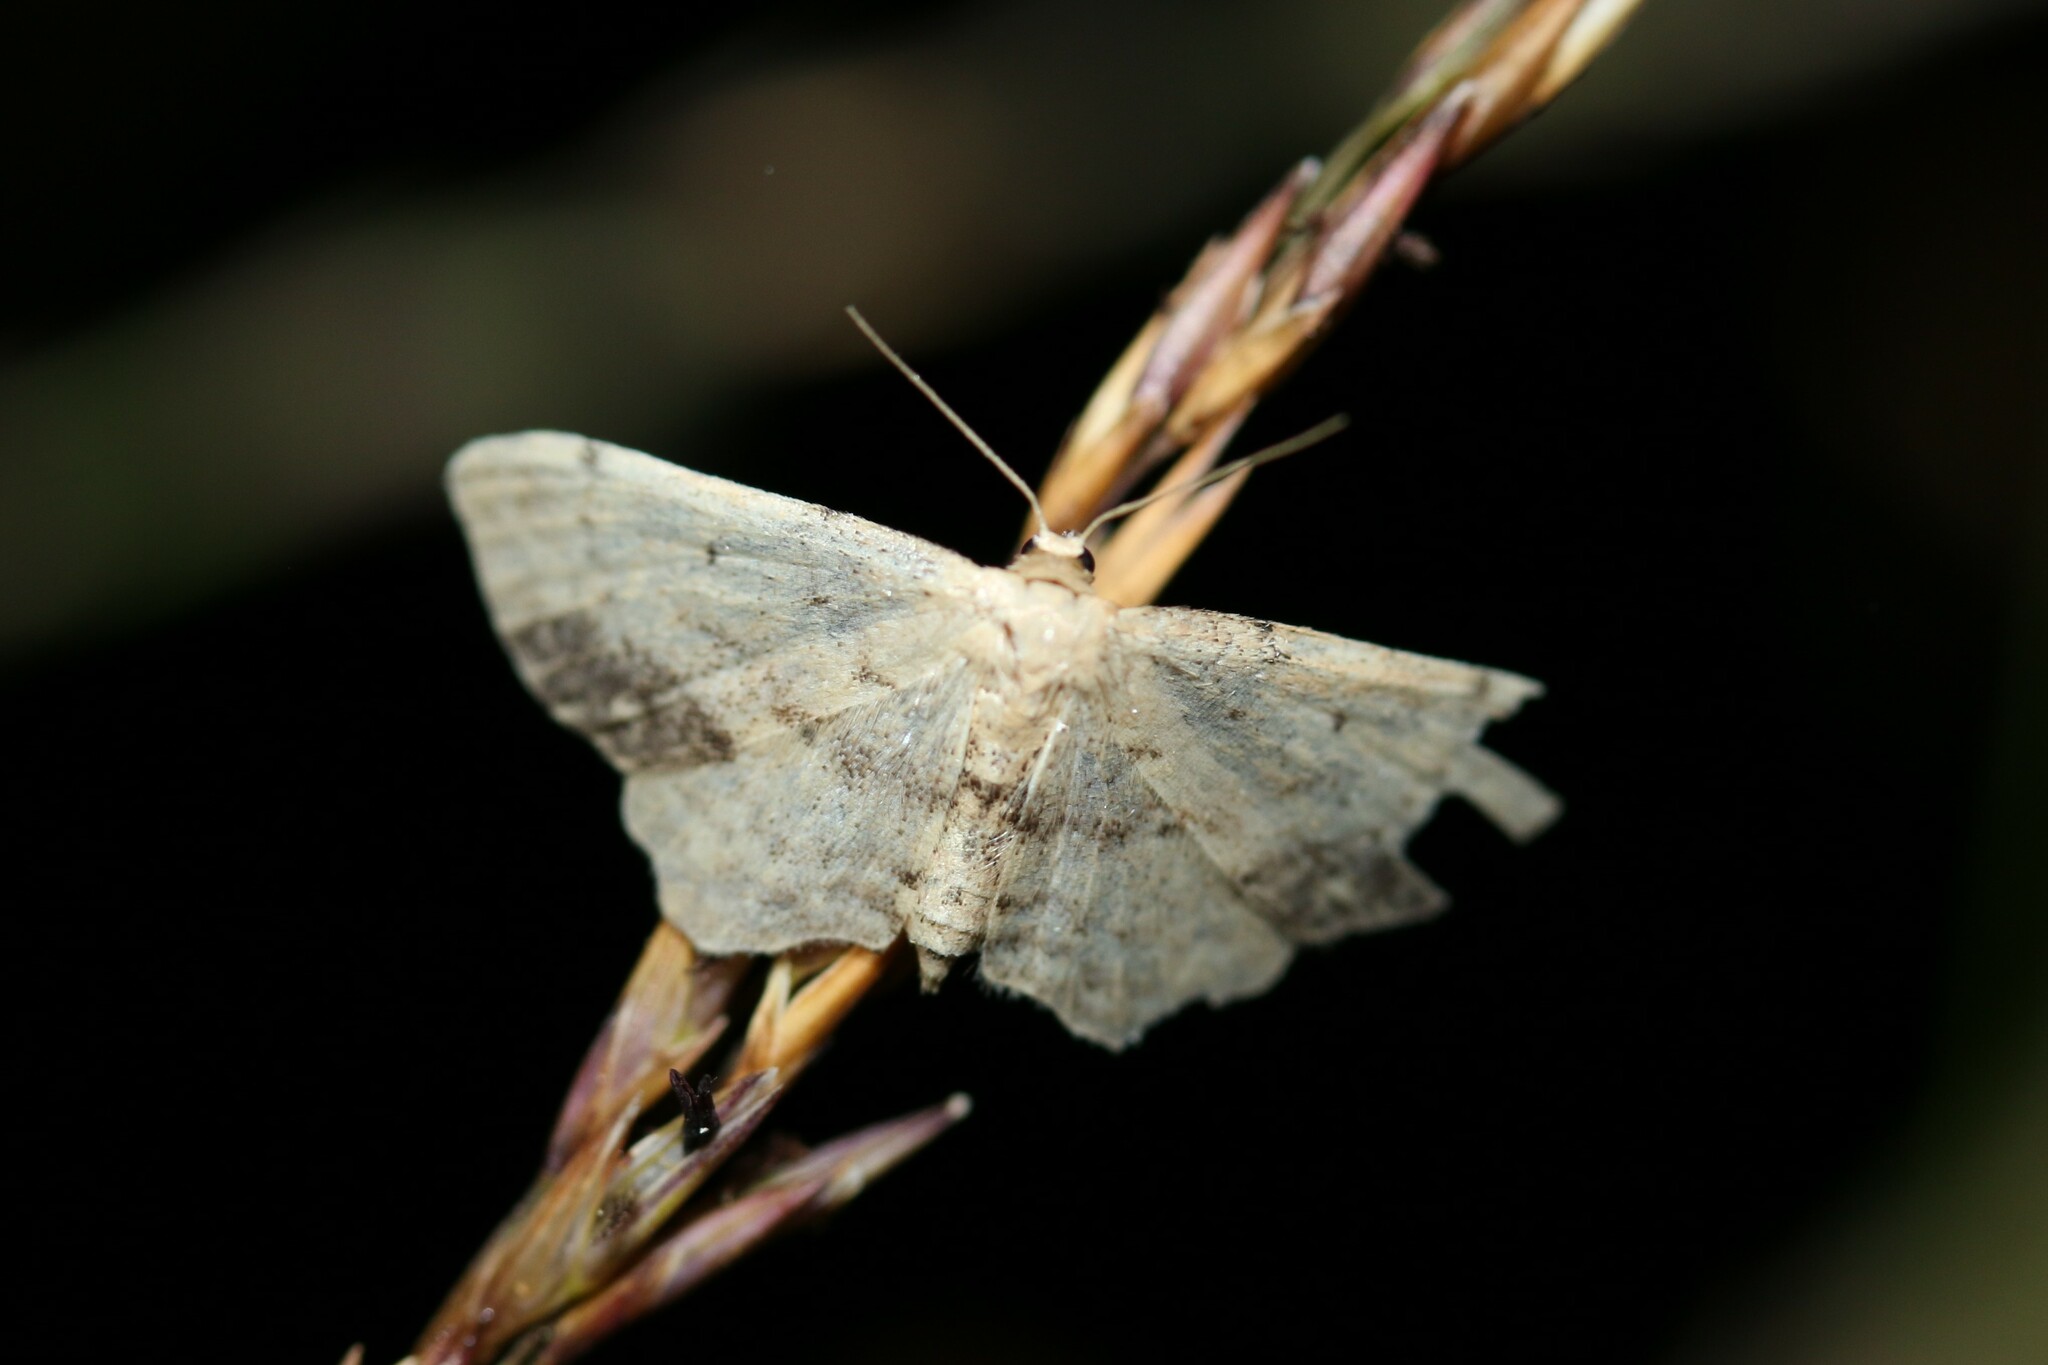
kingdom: Animalia
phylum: Arthropoda
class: Insecta
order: Lepidoptera
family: Geometridae
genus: Idaea
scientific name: Idaea dimidiata
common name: Single-dotted wave
